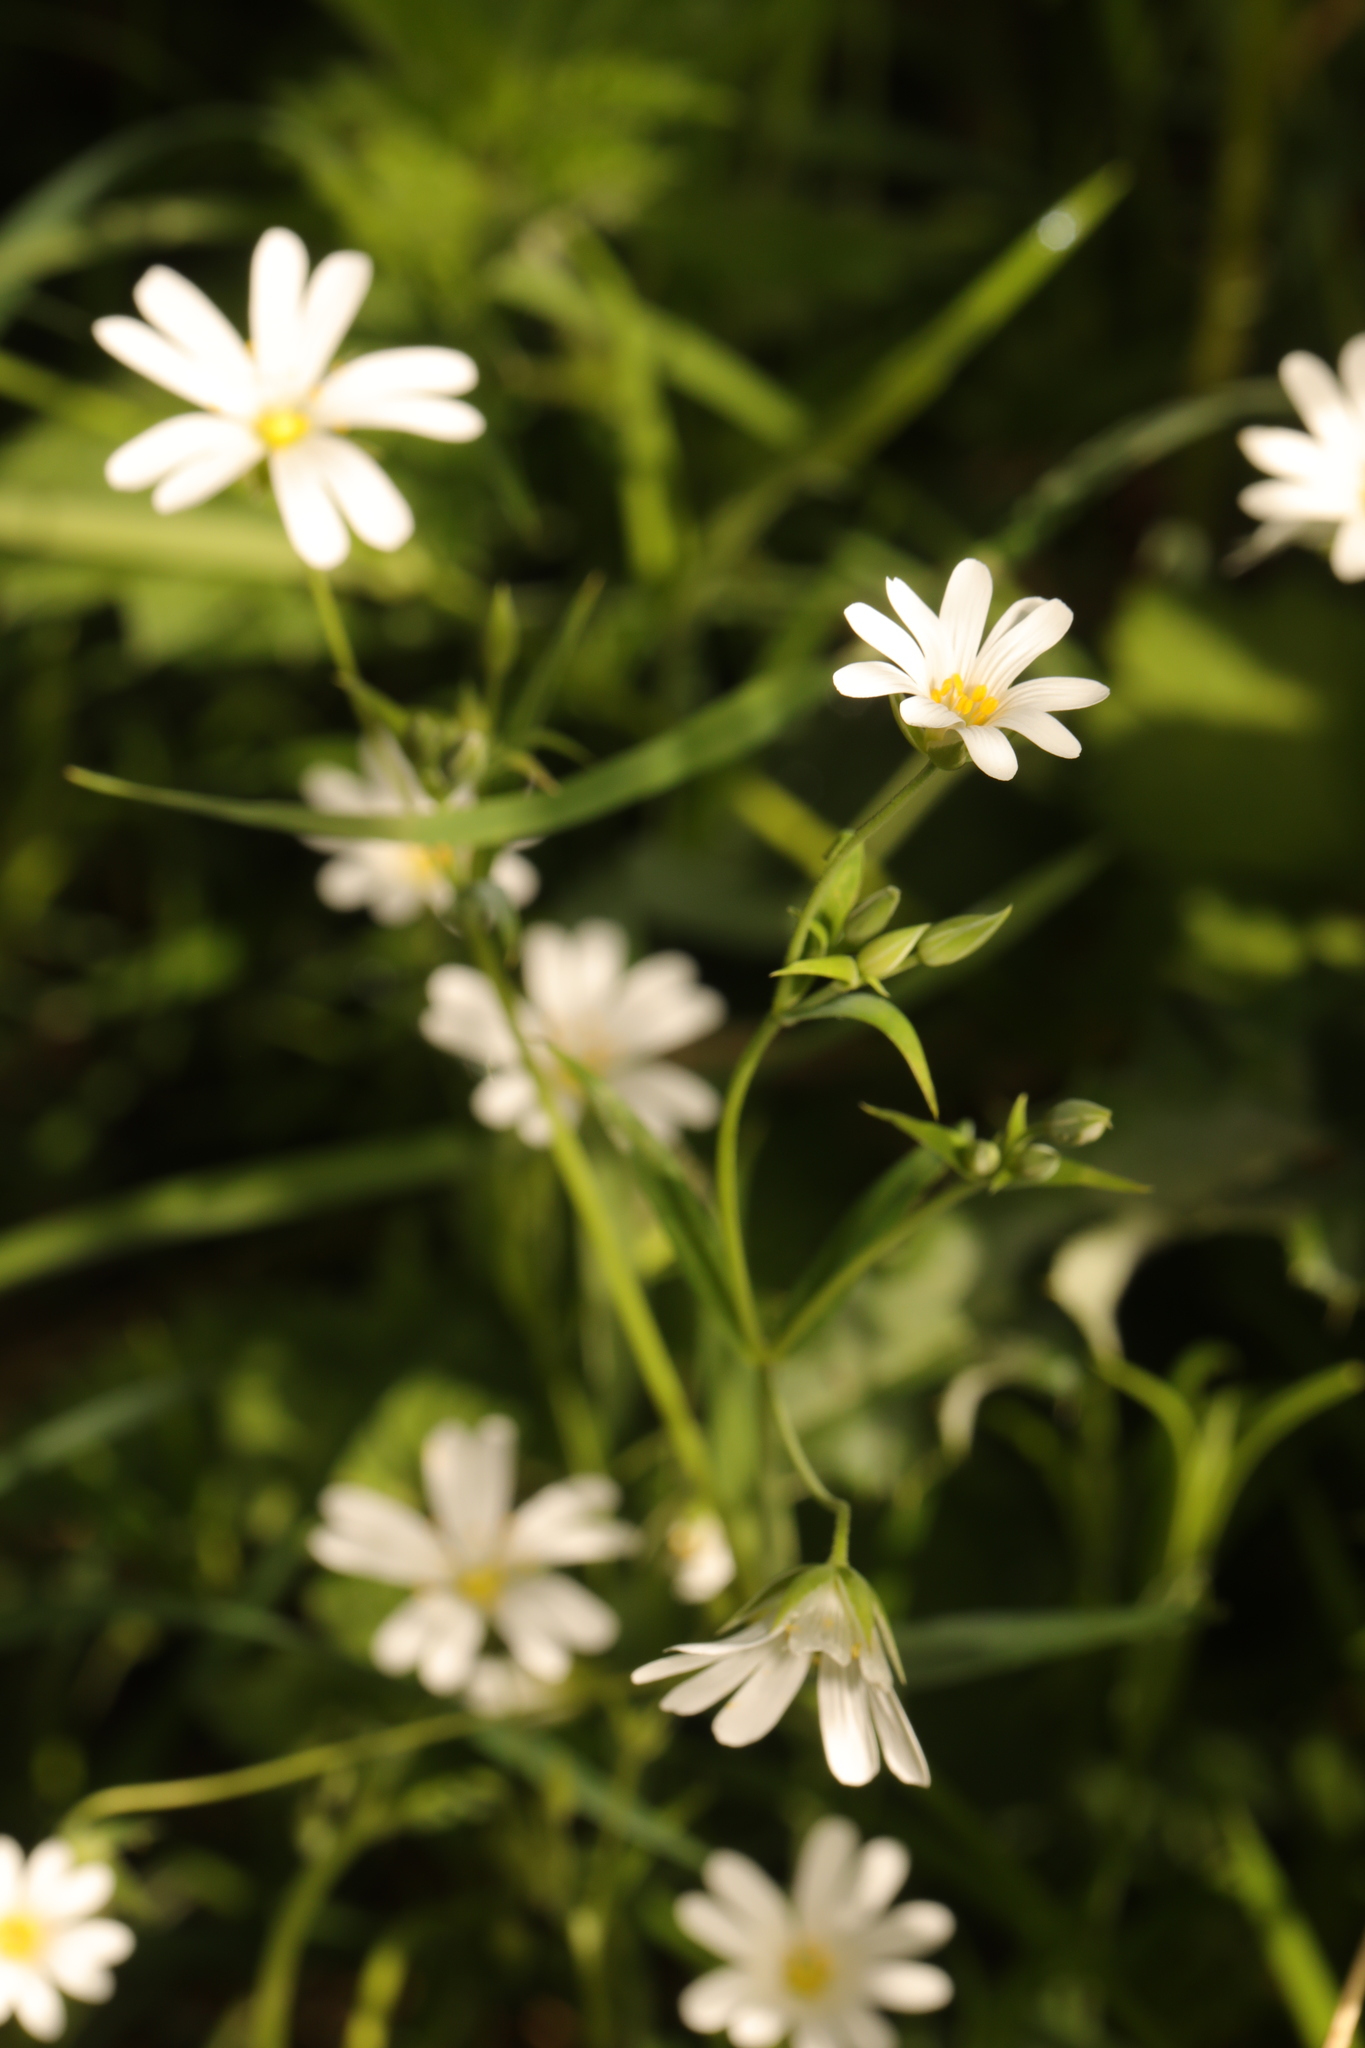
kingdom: Plantae
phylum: Tracheophyta
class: Magnoliopsida
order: Caryophyllales
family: Caryophyllaceae
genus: Rabelera
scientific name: Rabelera holostea
